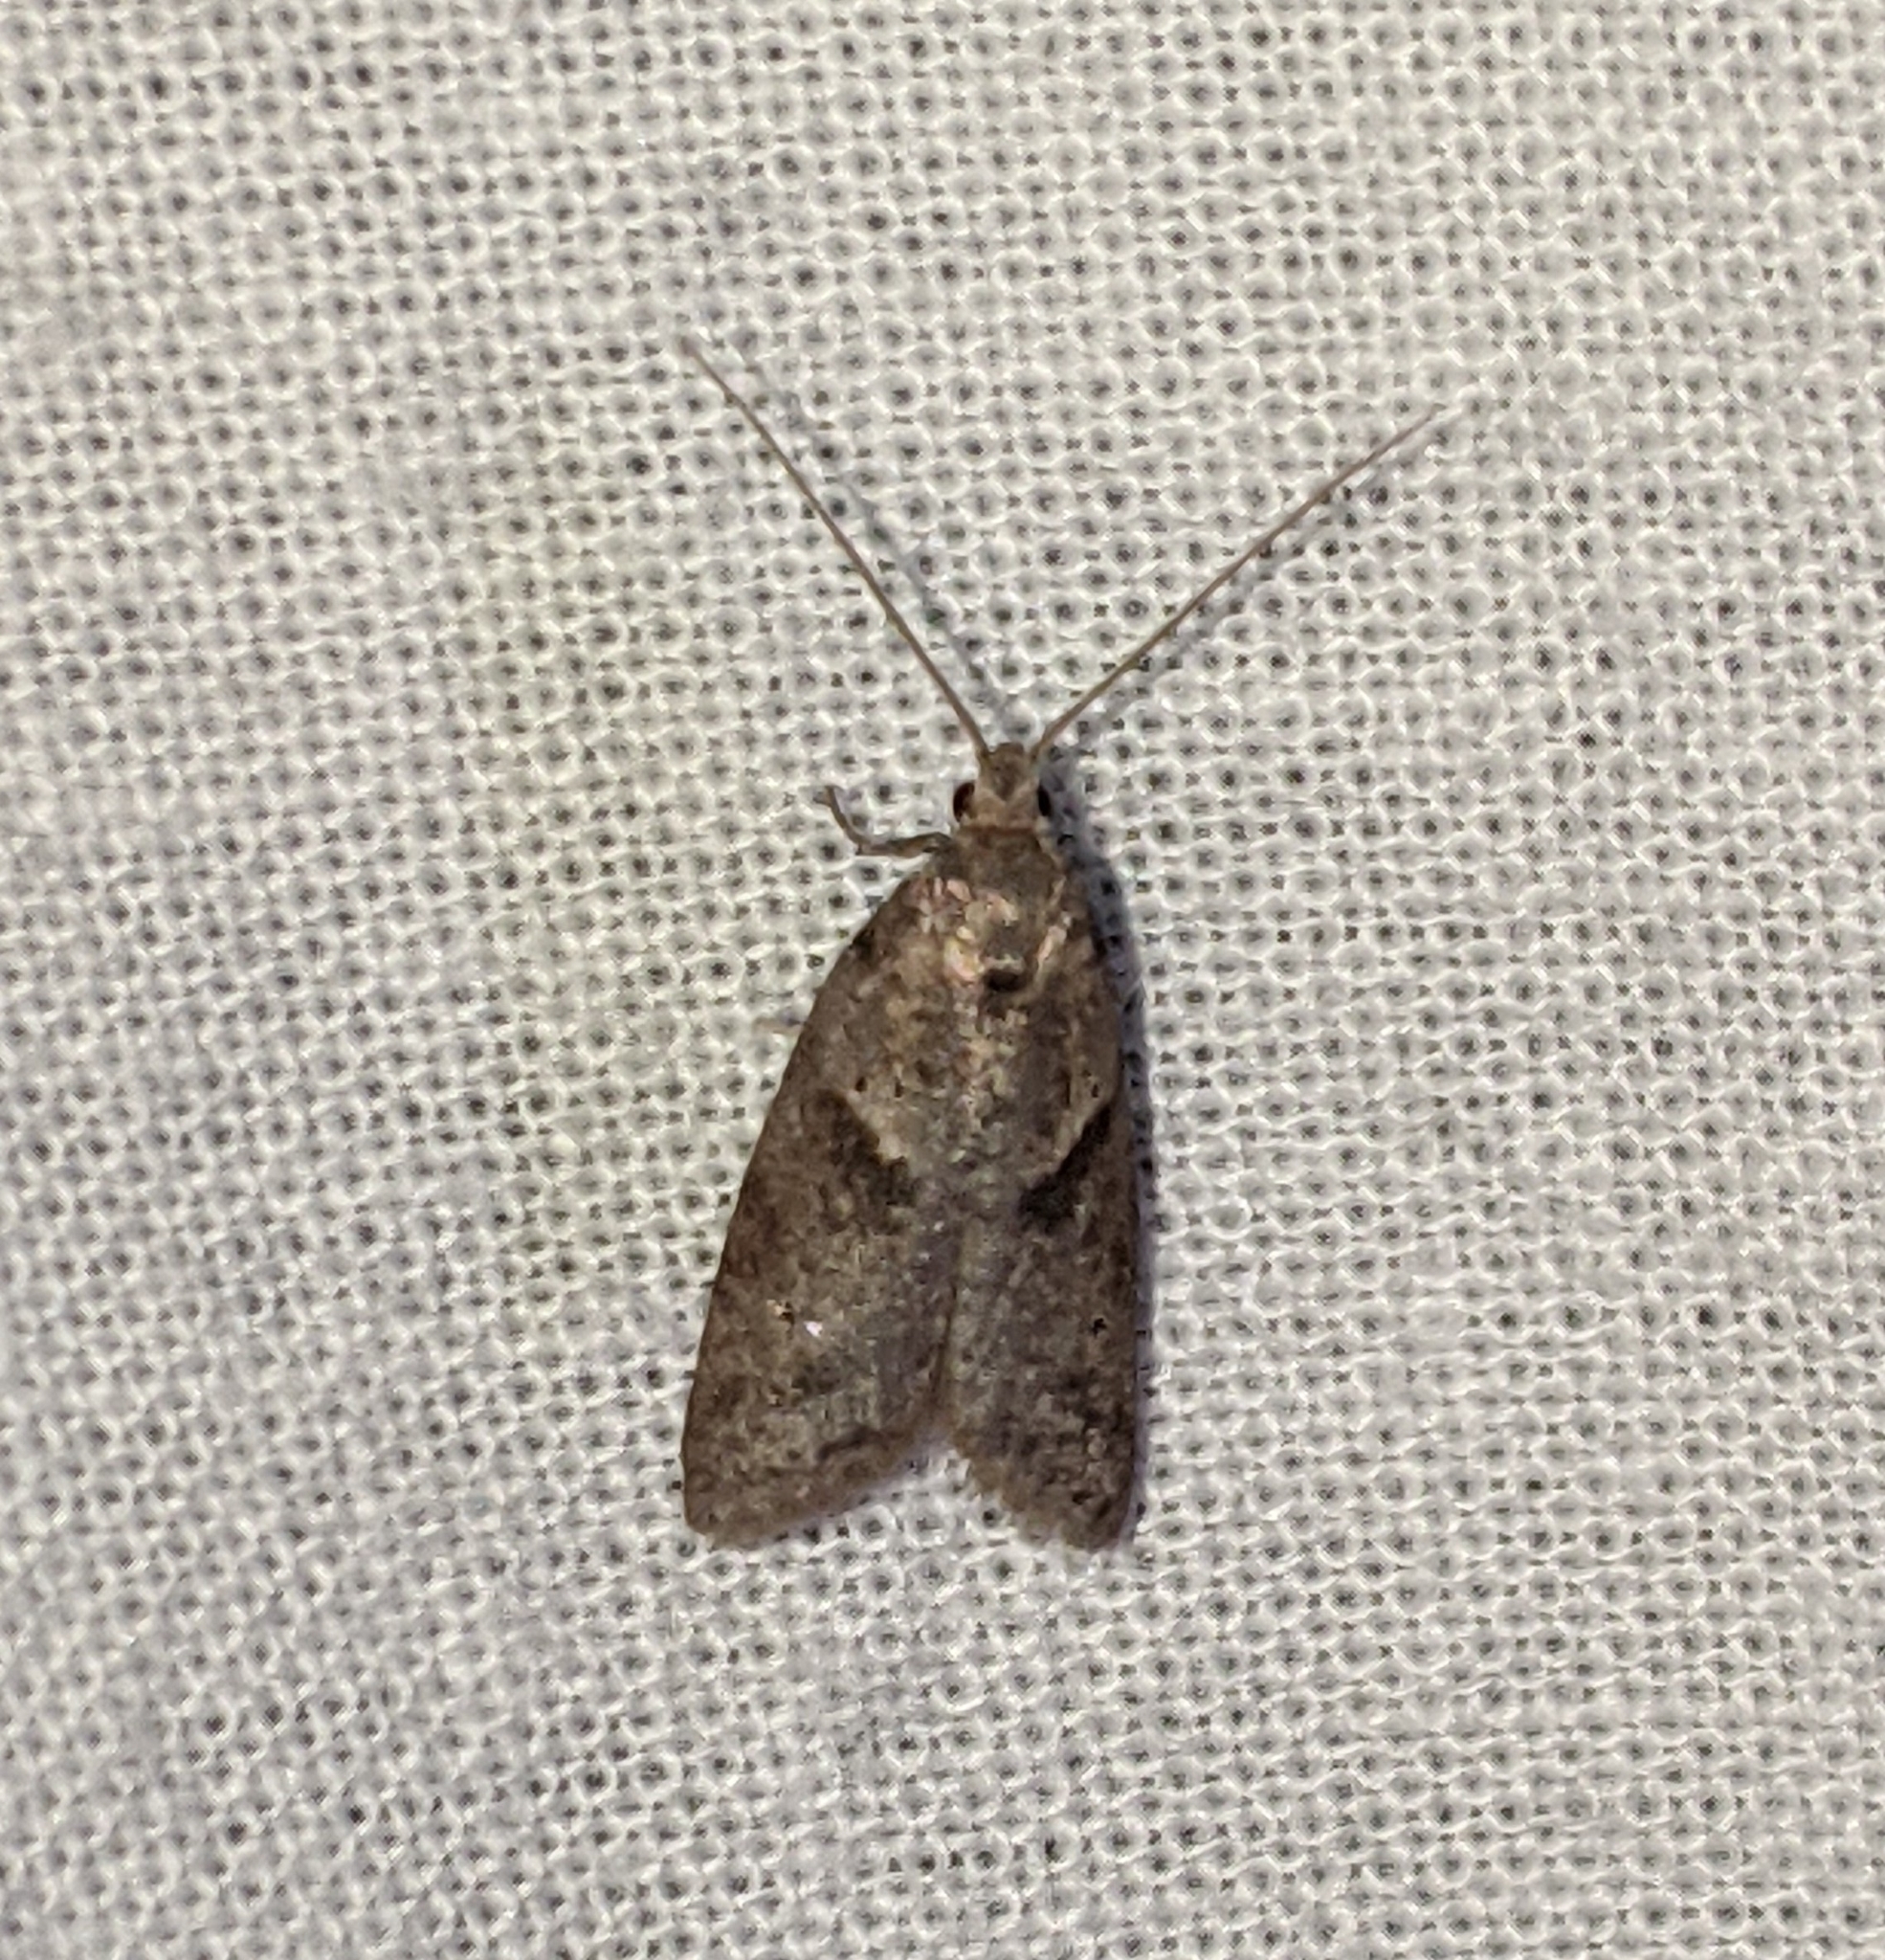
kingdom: Animalia
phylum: Arthropoda
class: Insecta
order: Lepidoptera
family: Copromorphidae
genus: Lotisma
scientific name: Lotisma trigonana
